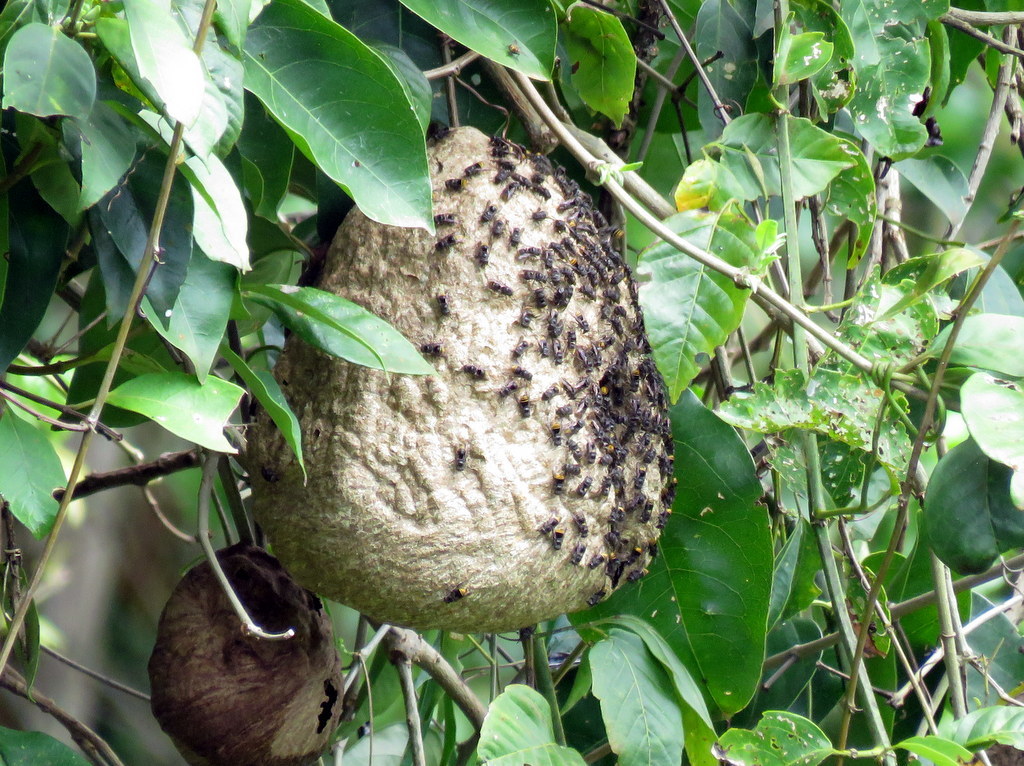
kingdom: Animalia
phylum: Arthropoda
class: Insecta
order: Hymenoptera
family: Vespidae
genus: Brachygastra
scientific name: Brachygastra augusti
